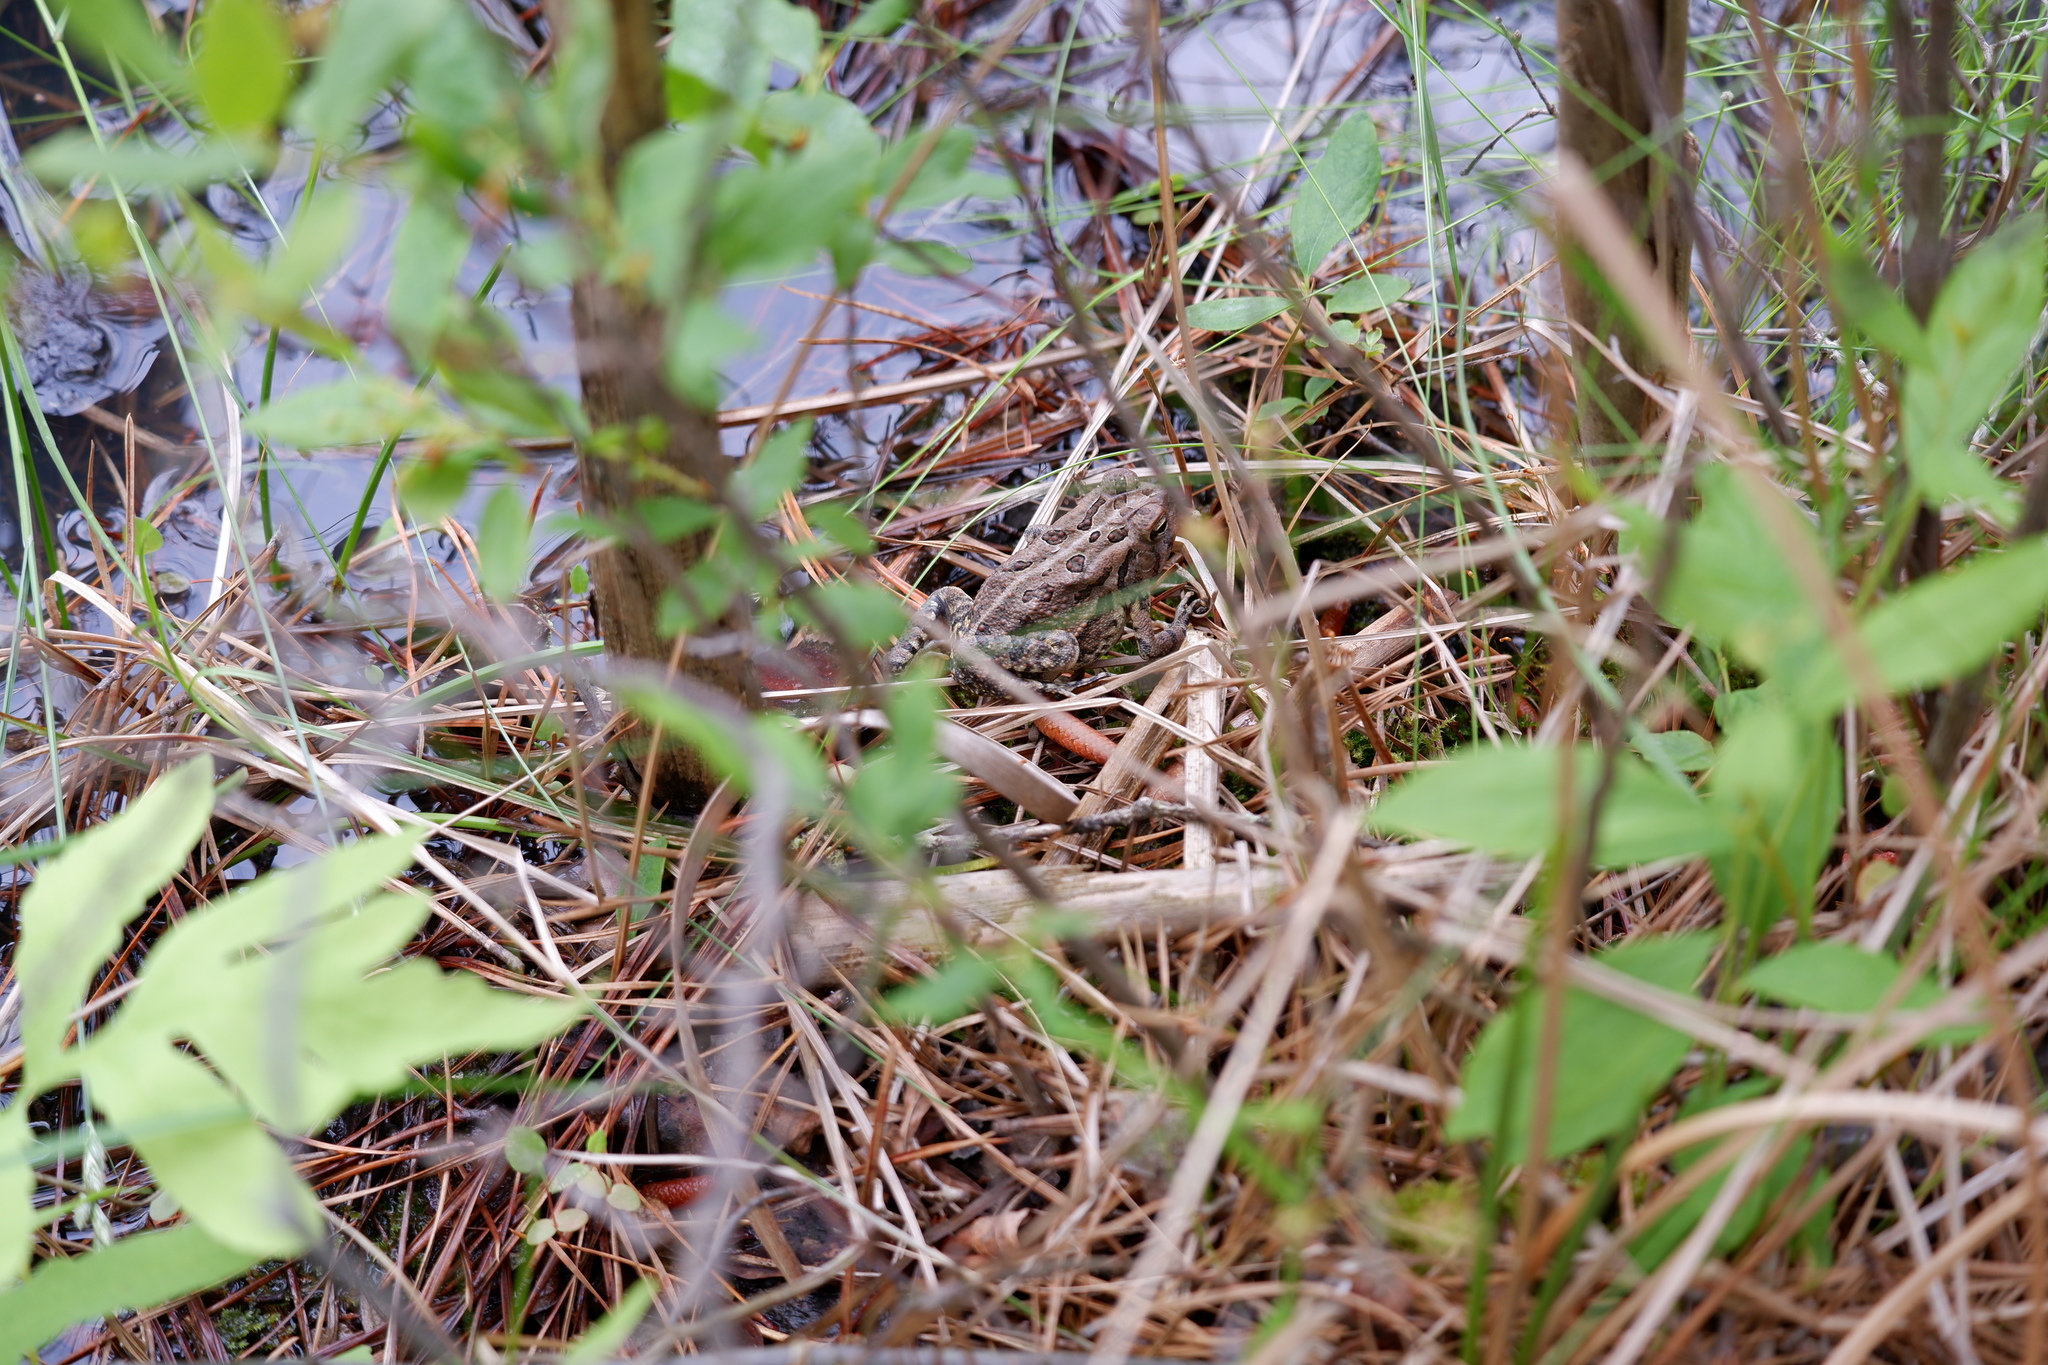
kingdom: Animalia
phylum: Chordata
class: Amphibia
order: Anura
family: Bufonidae
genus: Anaxyrus
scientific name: Anaxyrus fowleri
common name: Fowler's toad
